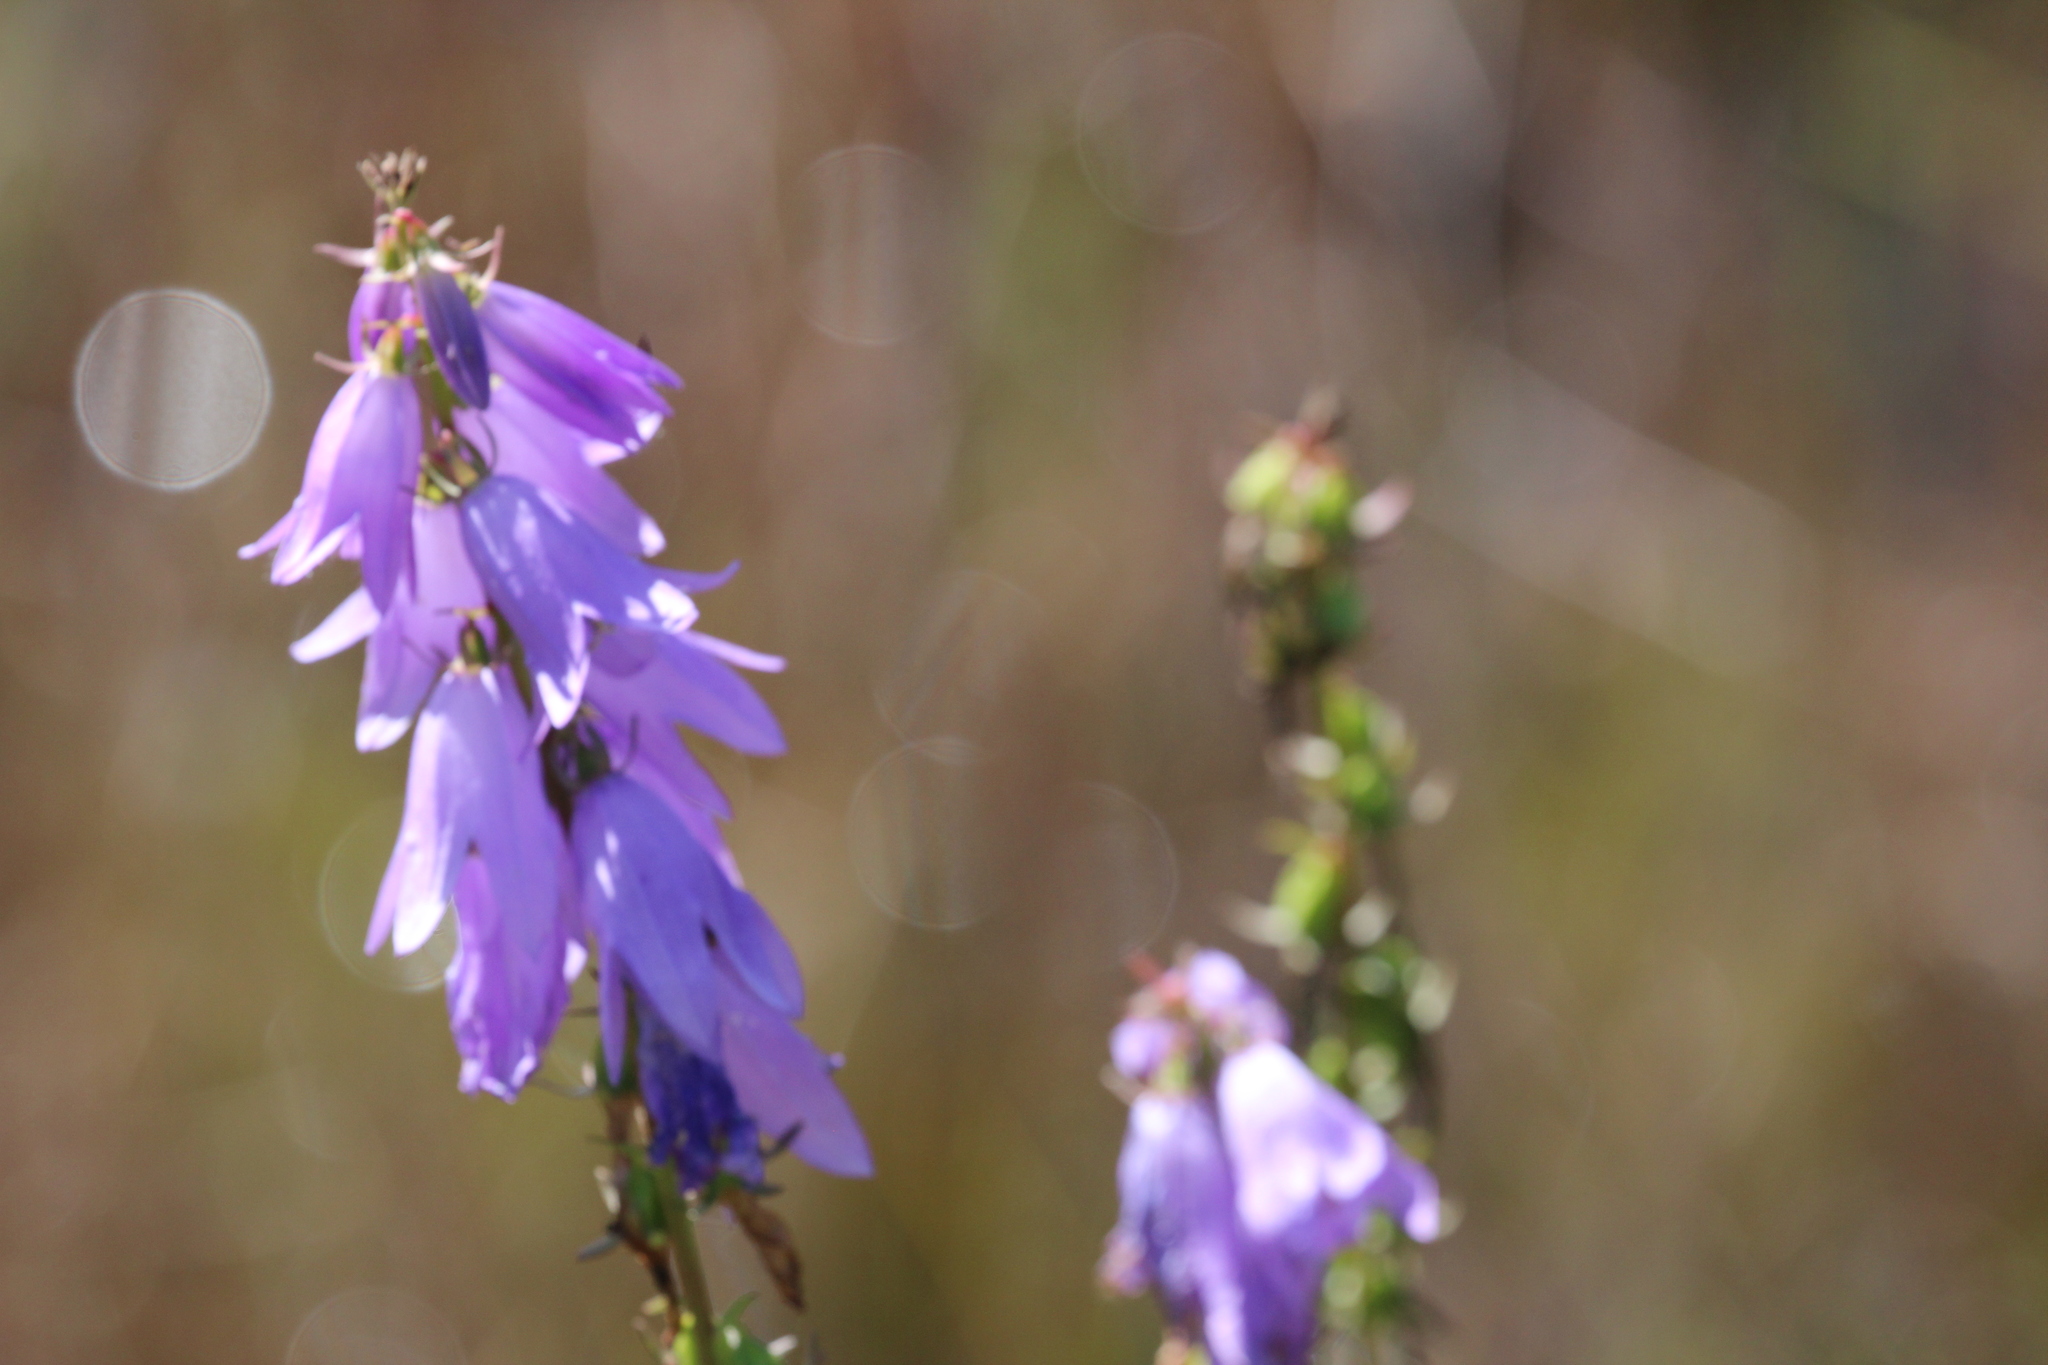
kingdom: Plantae
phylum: Tracheophyta
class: Magnoliopsida
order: Asterales
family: Campanulaceae
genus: Campanula
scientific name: Campanula rapunculoides
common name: Creeping bellflower
